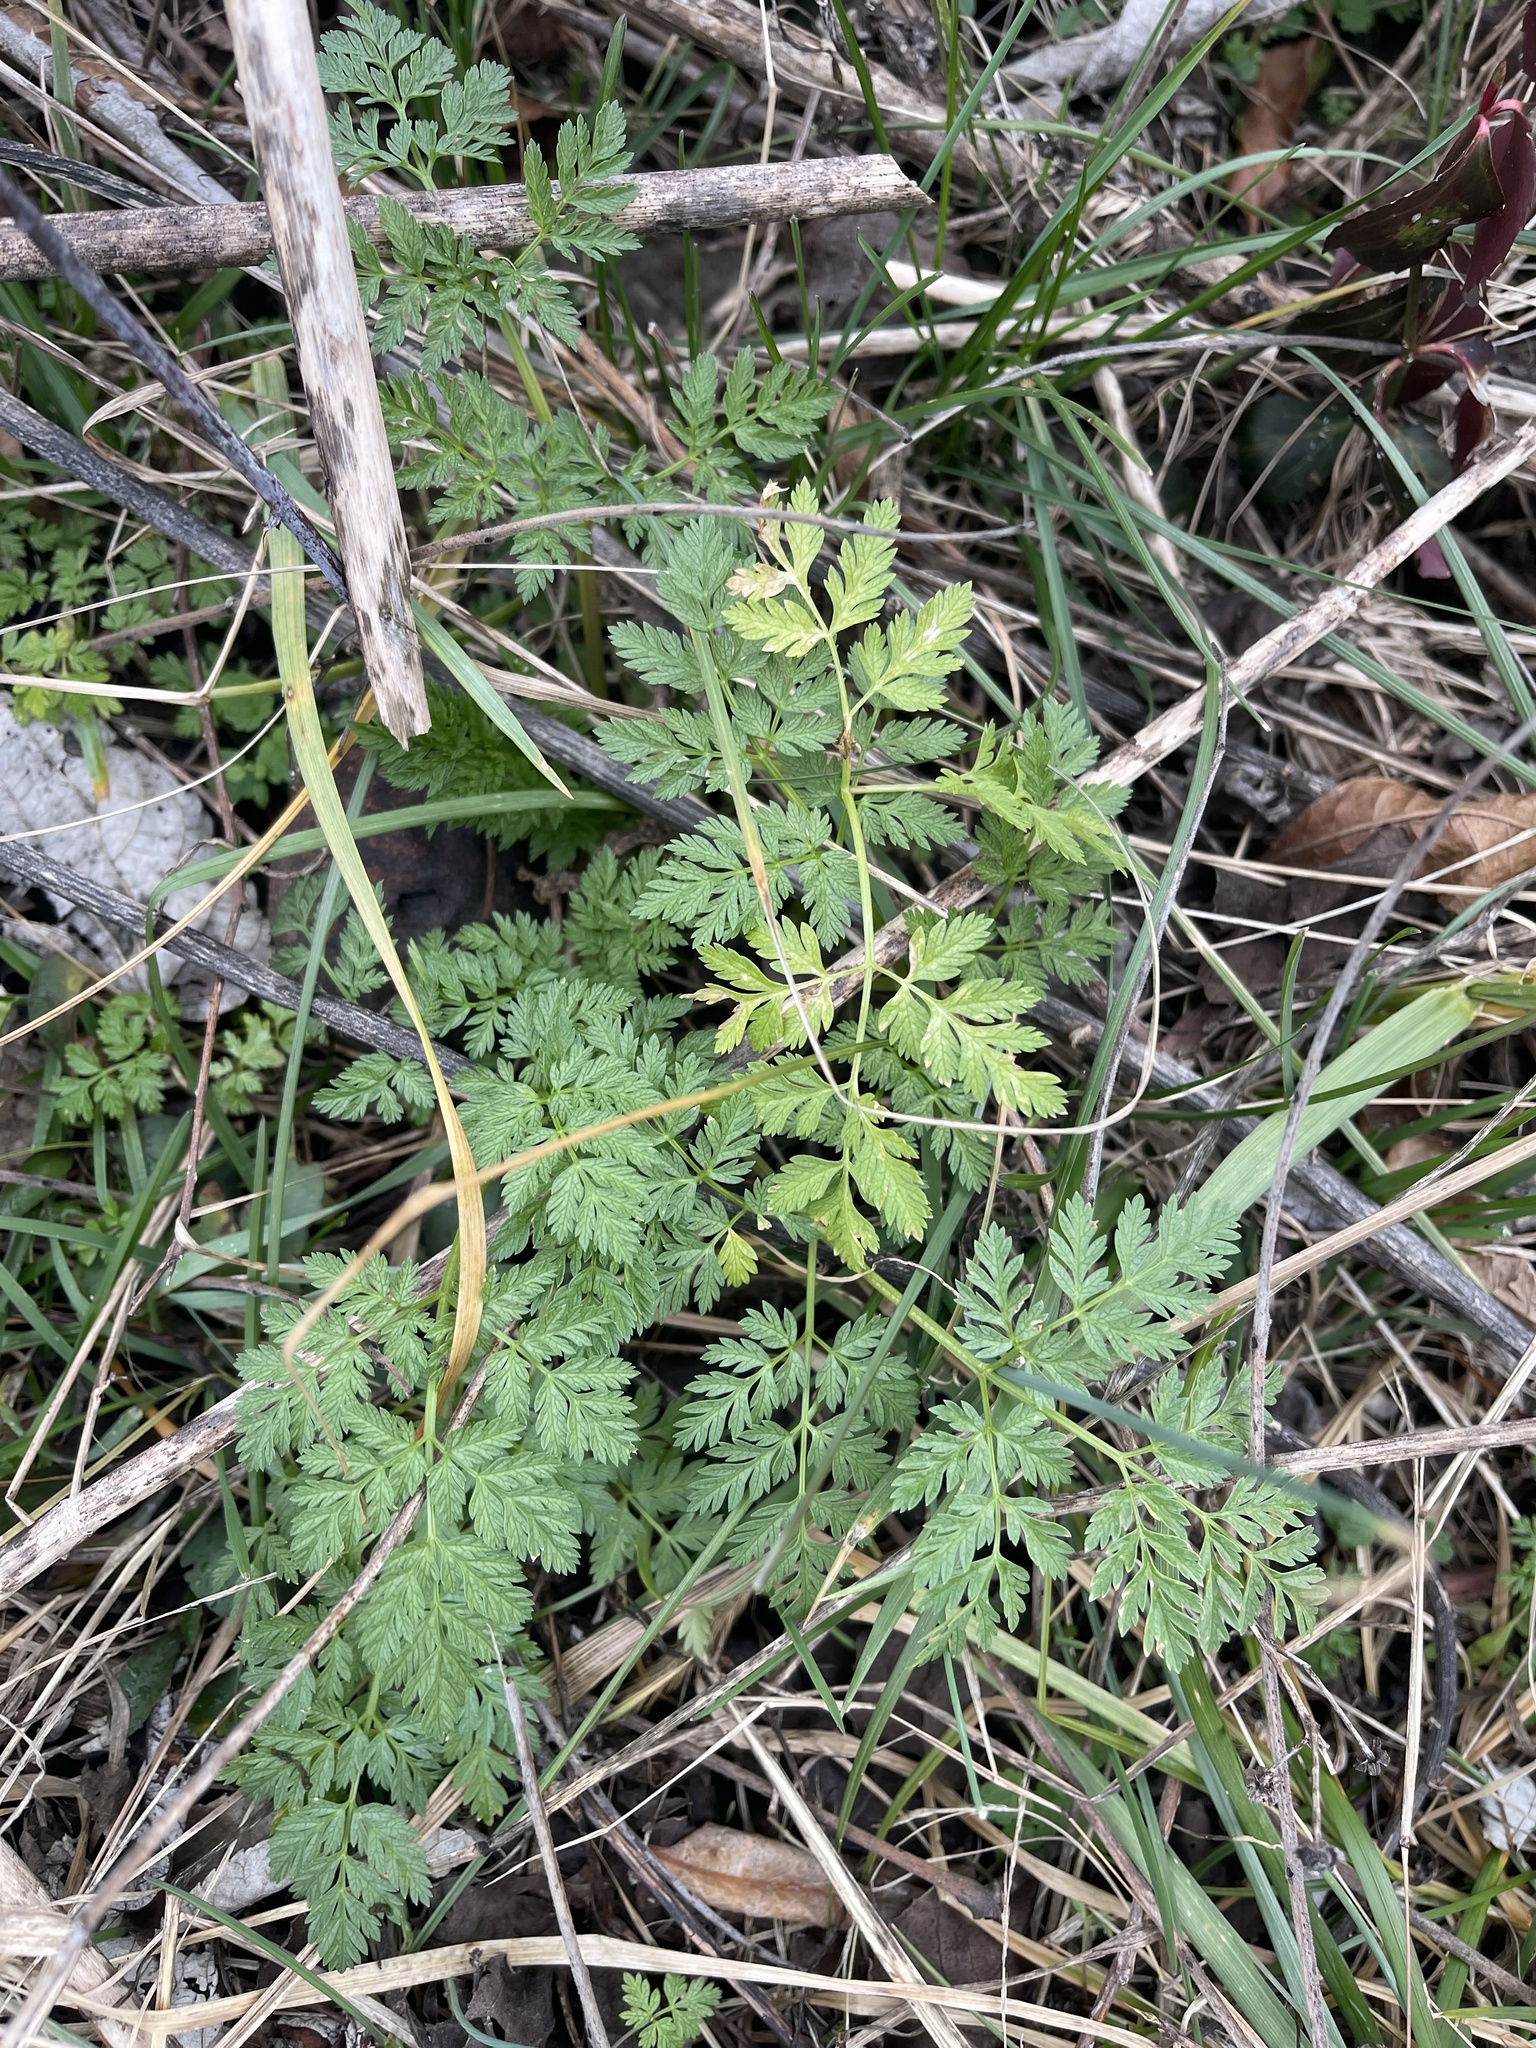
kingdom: Plantae
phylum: Tracheophyta
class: Magnoliopsida
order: Apiales
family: Apiaceae
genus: Conium
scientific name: Conium maculatum
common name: Hemlock
